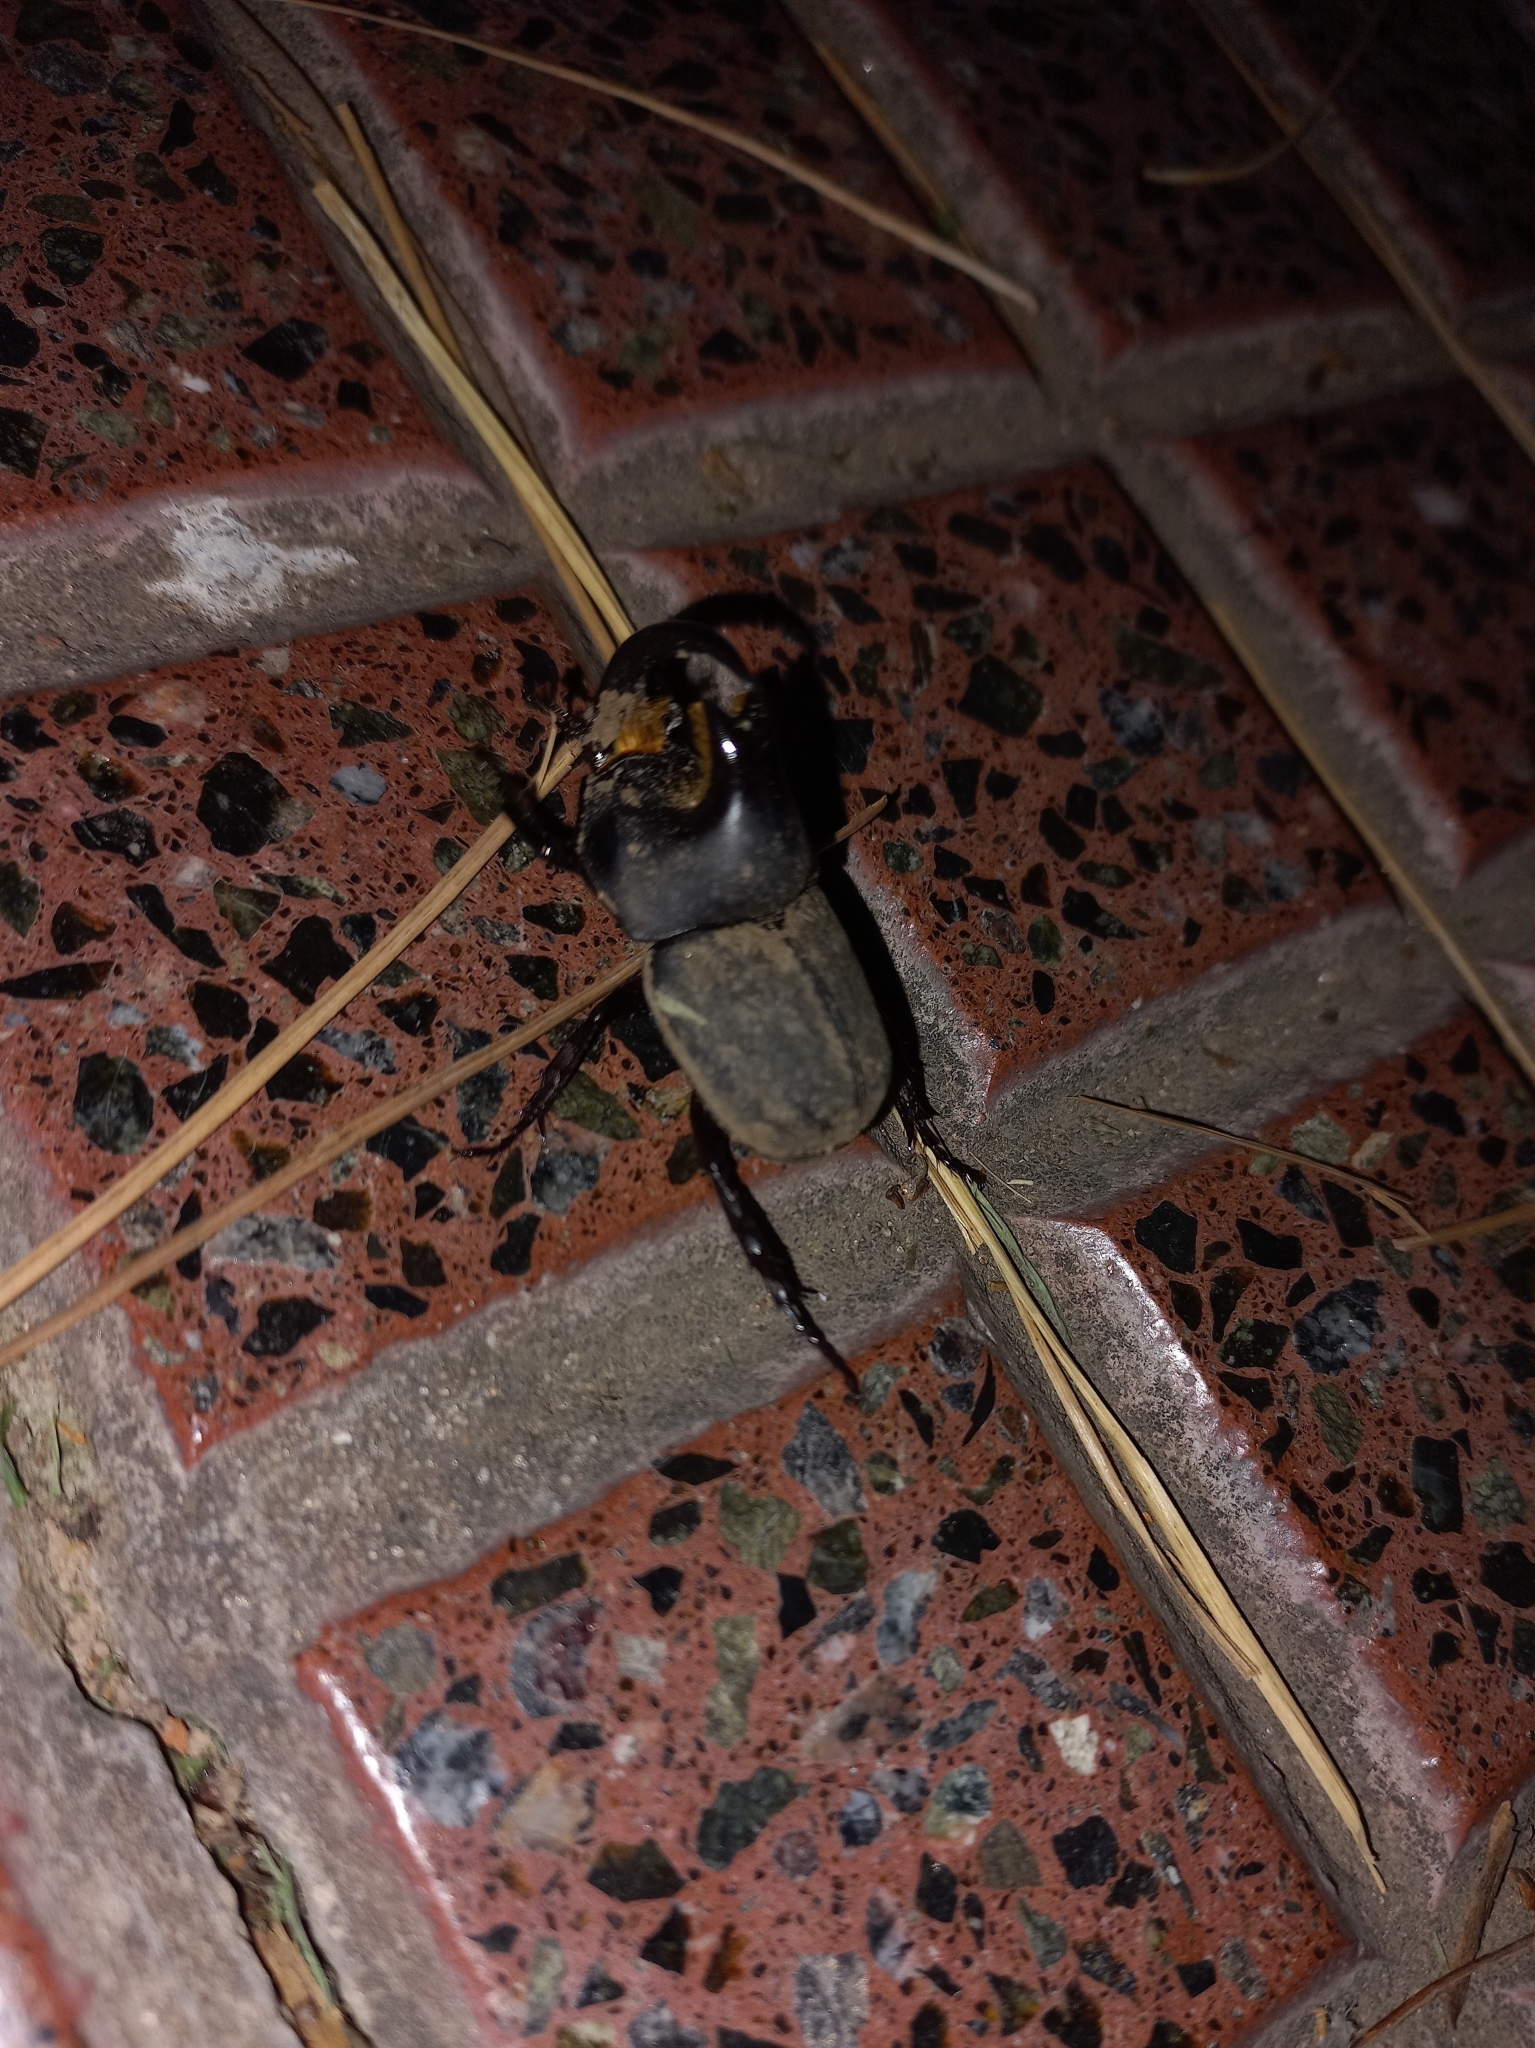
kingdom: Animalia
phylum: Arthropoda
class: Insecta
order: Coleoptera
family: Scarabaeidae
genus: Diloboderus
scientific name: Diloboderus abderus
